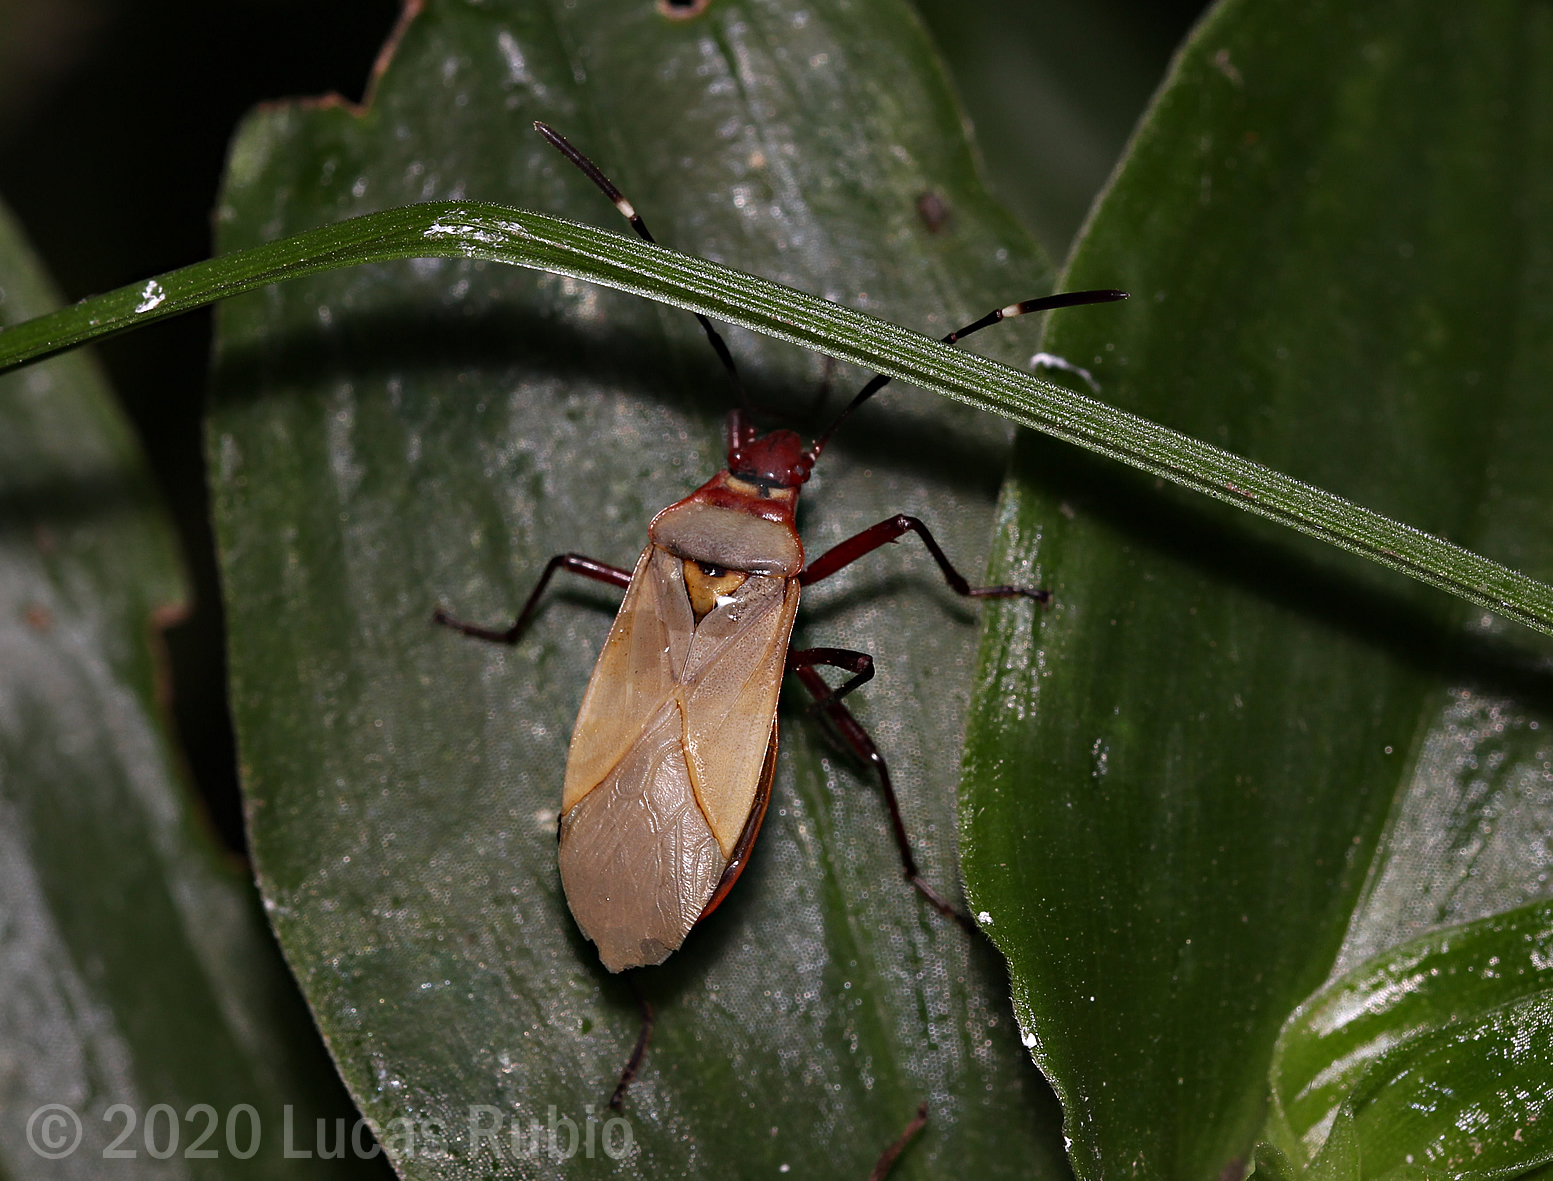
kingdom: Animalia
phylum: Arthropoda
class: Insecta
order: Hemiptera
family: Pyrrhocoridae
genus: Dysdercus
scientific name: Dysdercus
